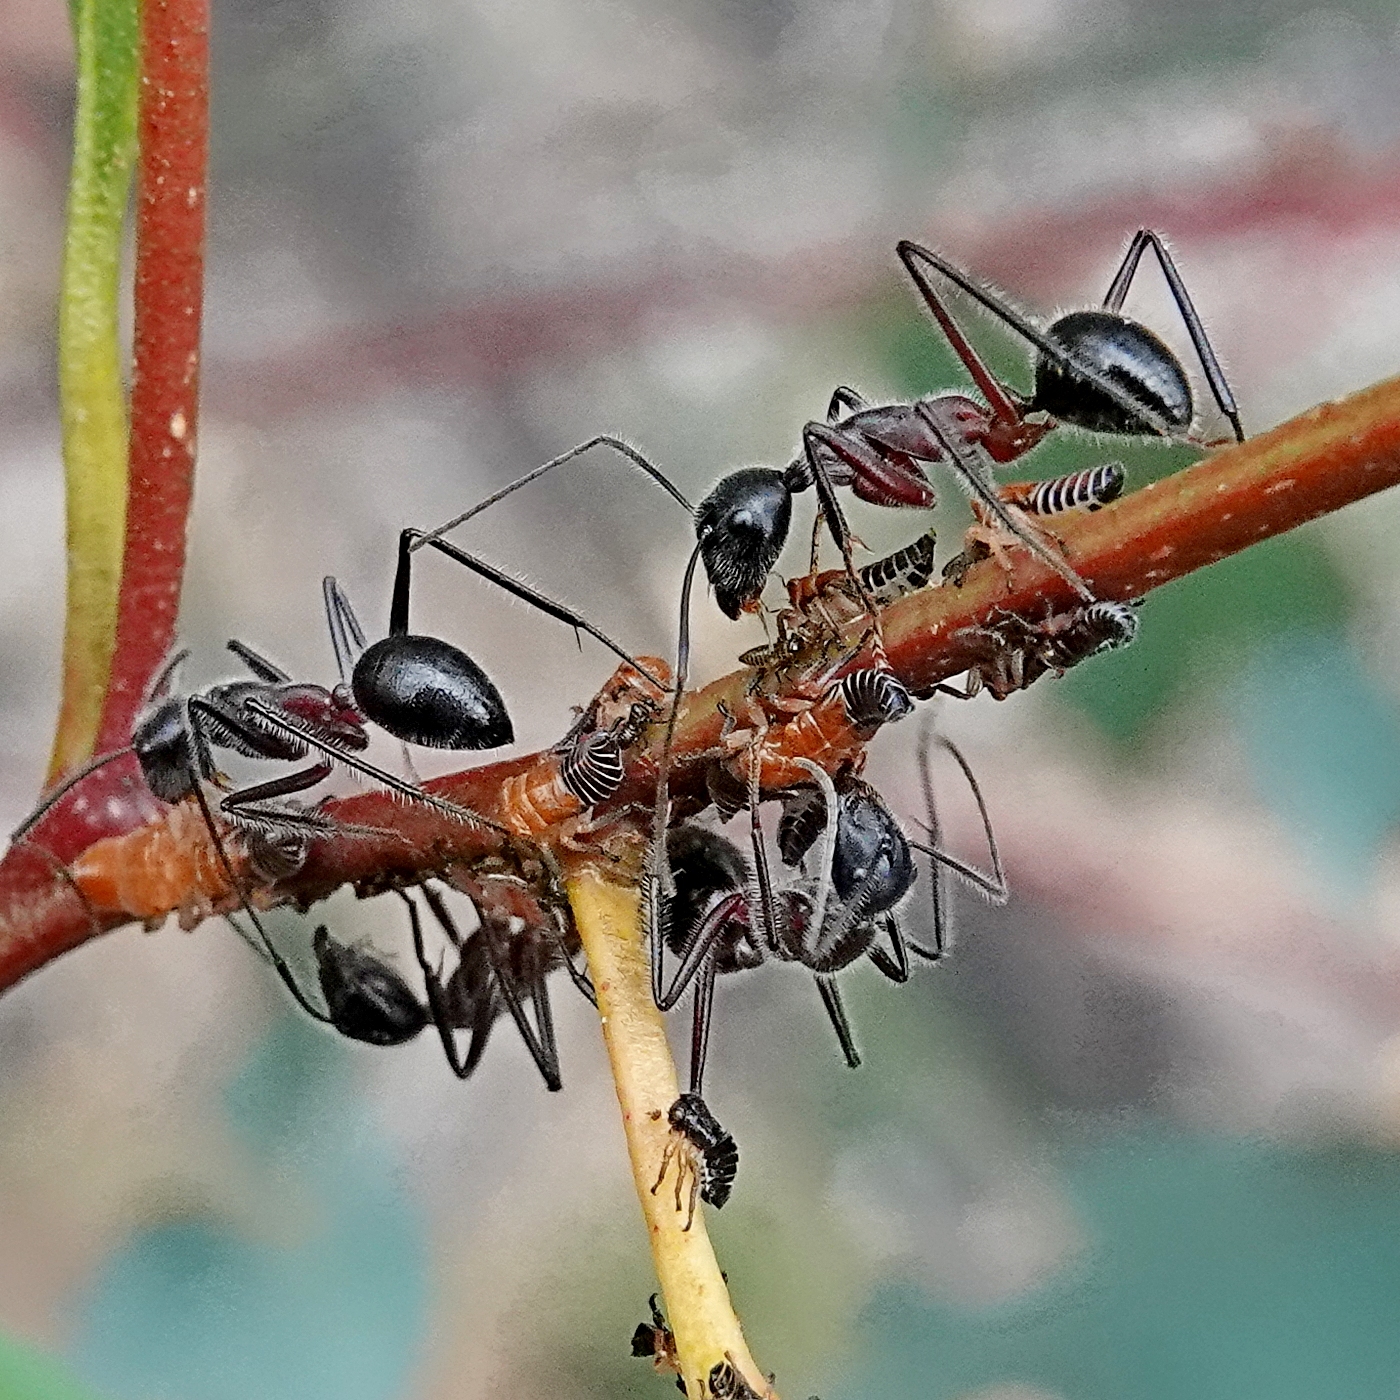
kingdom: Animalia
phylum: Arthropoda
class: Insecta
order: Hymenoptera
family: Formicidae
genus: Camponotus
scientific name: Camponotus intrepidus
